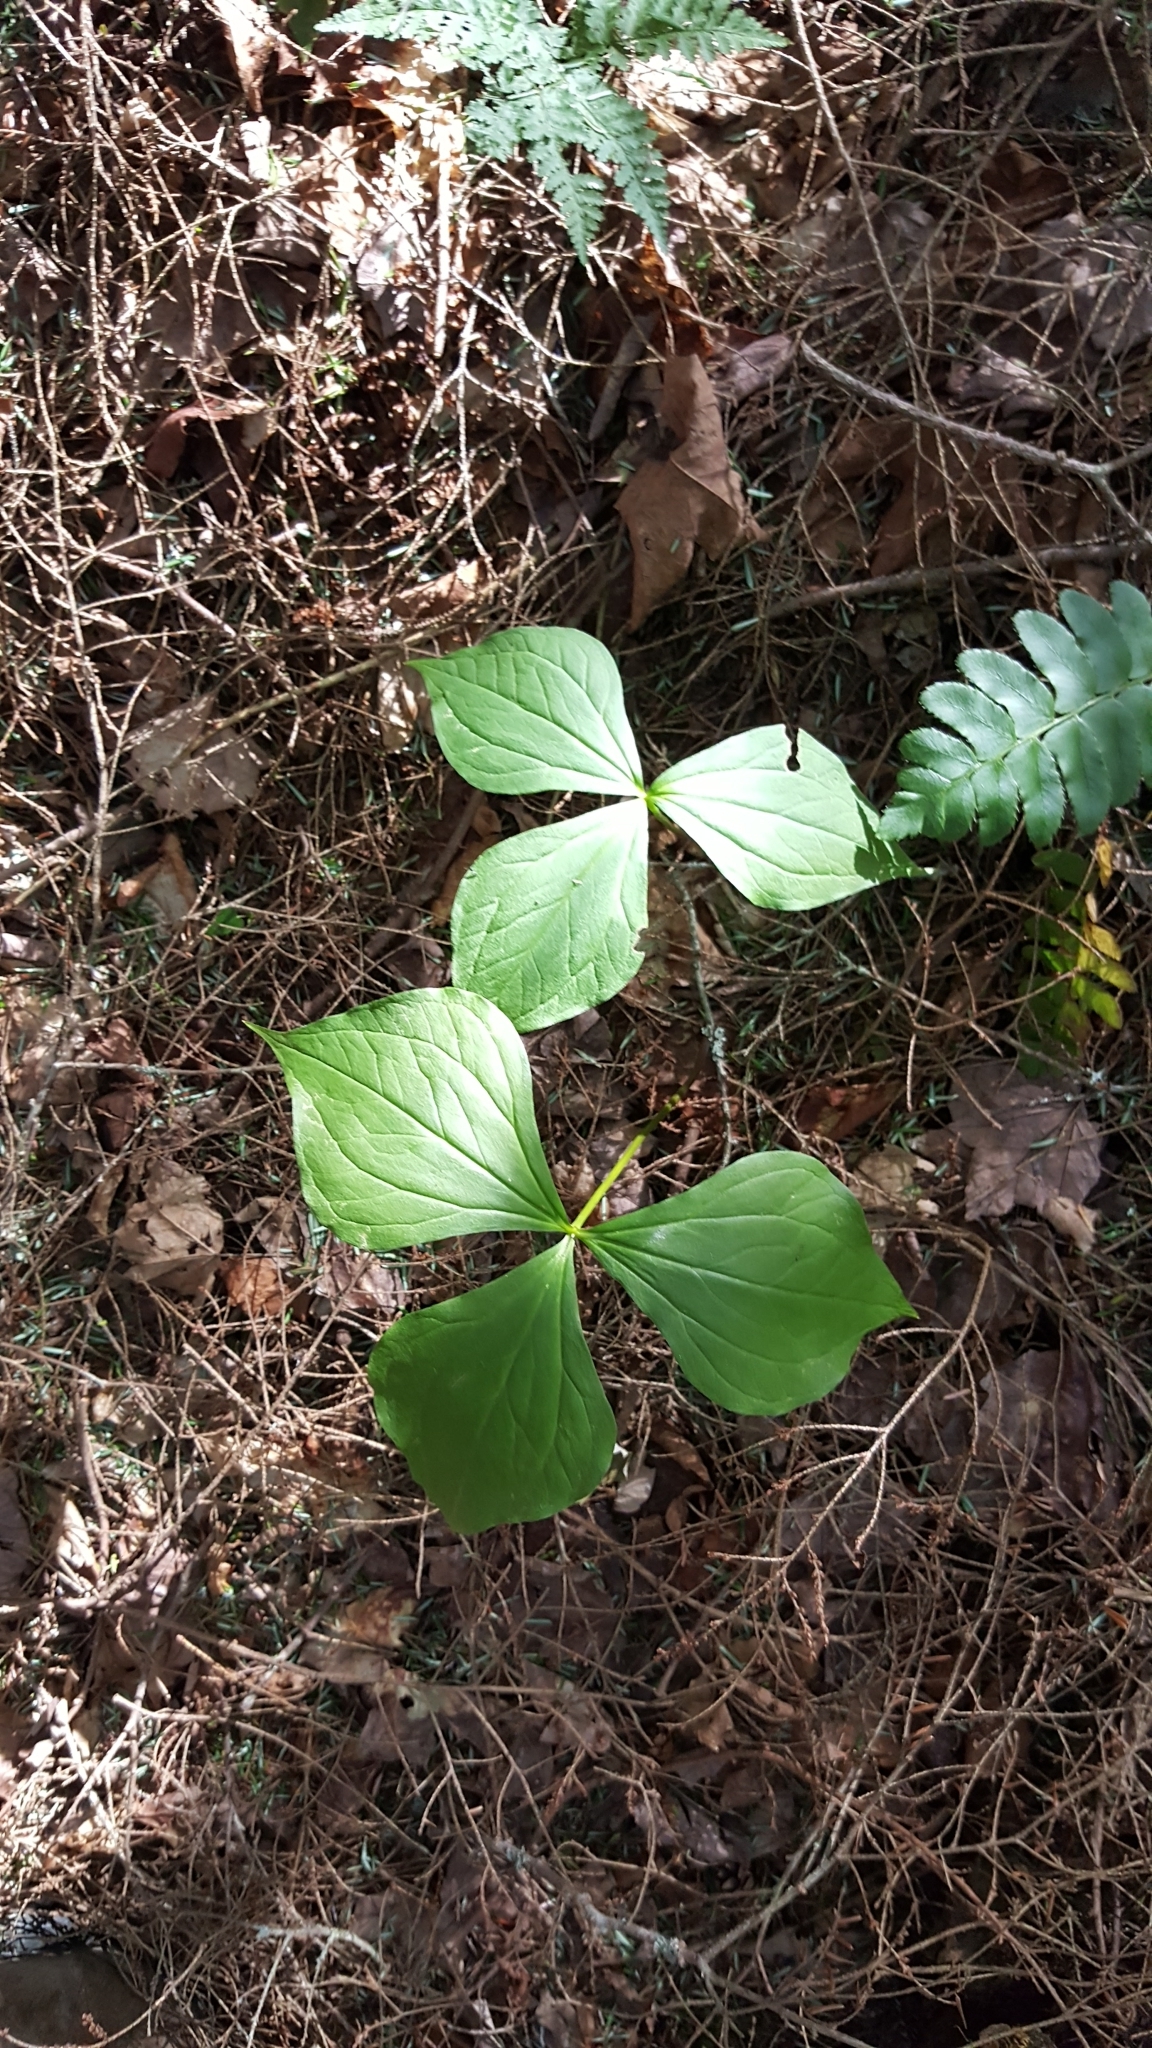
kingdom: Plantae
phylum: Tracheophyta
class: Liliopsida
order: Liliales
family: Melanthiaceae
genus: Trillium
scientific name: Trillium erectum
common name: Purple trillium
